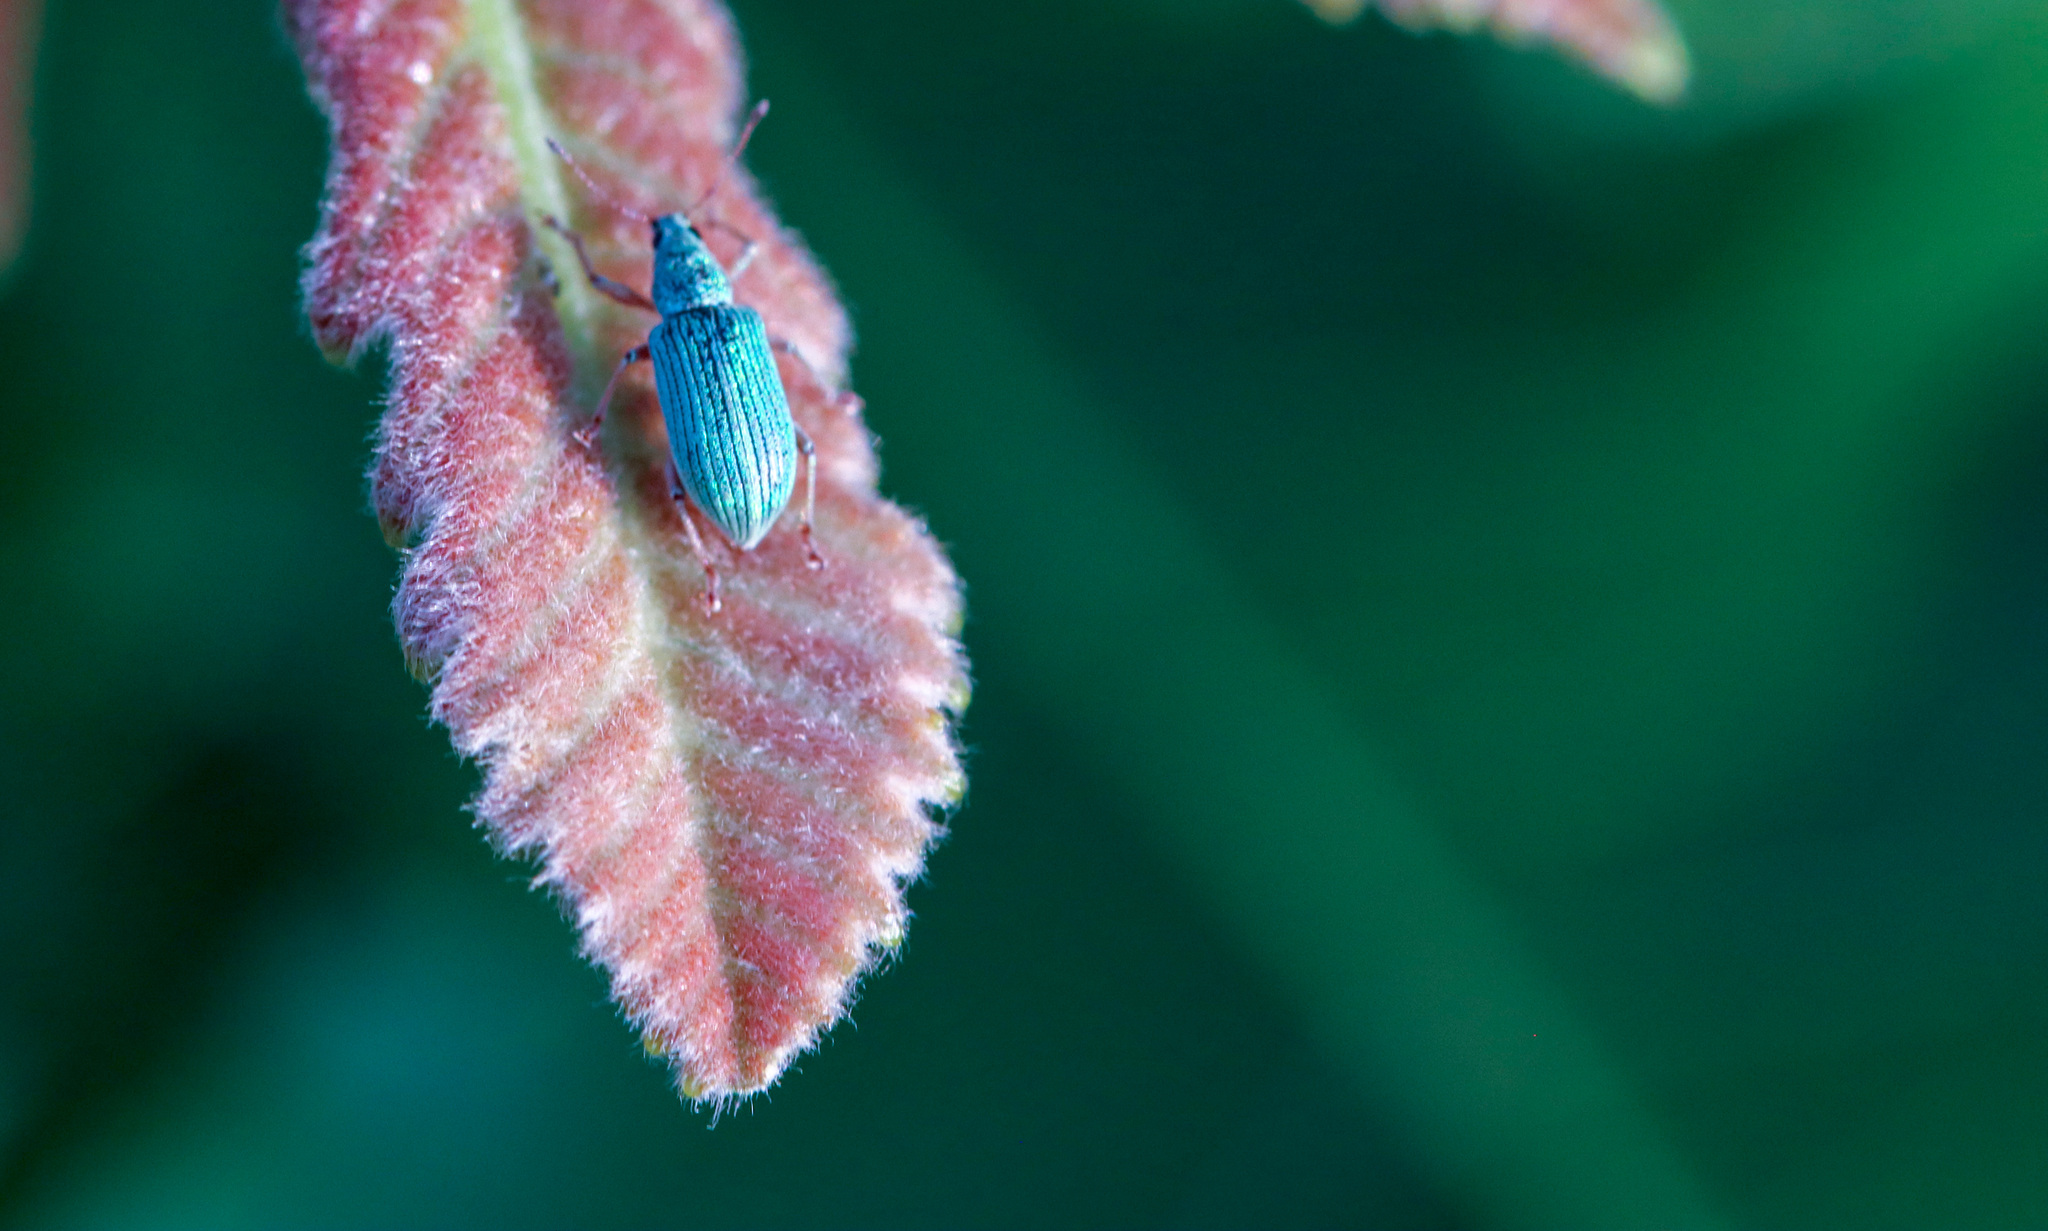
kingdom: Animalia
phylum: Arthropoda
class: Insecta
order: Coleoptera
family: Curculionidae
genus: Polydrusus
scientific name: Polydrusus formosus
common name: Weevil
